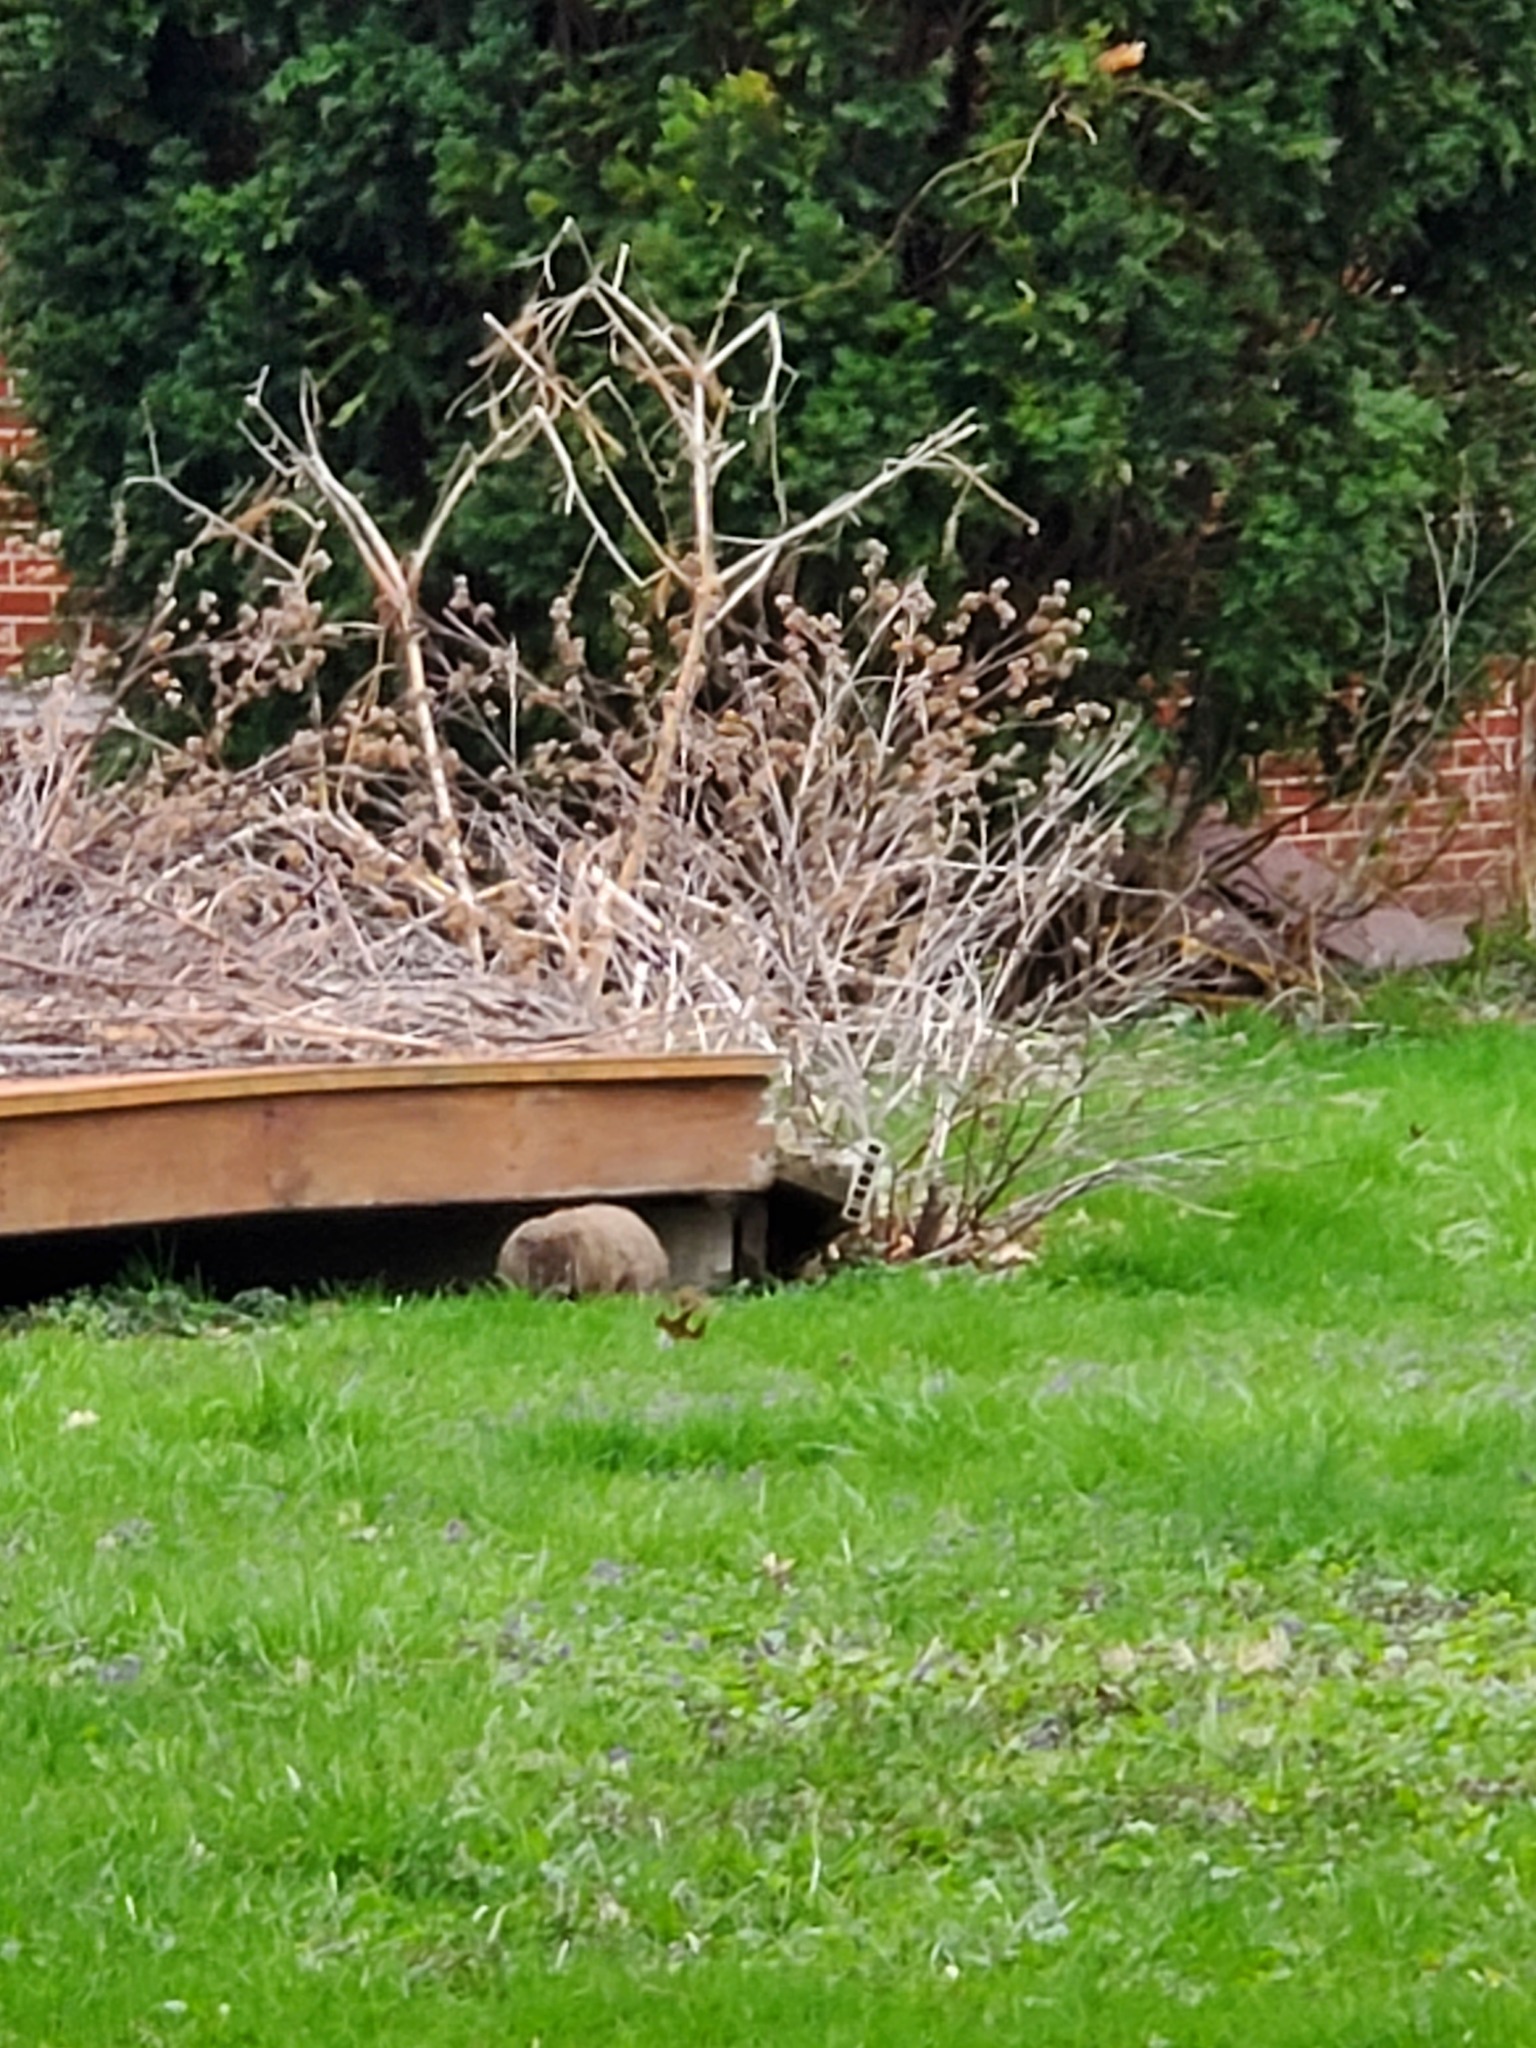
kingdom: Animalia
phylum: Chordata
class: Mammalia
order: Rodentia
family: Sciuridae
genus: Marmota
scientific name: Marmota monax
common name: Groundhog
